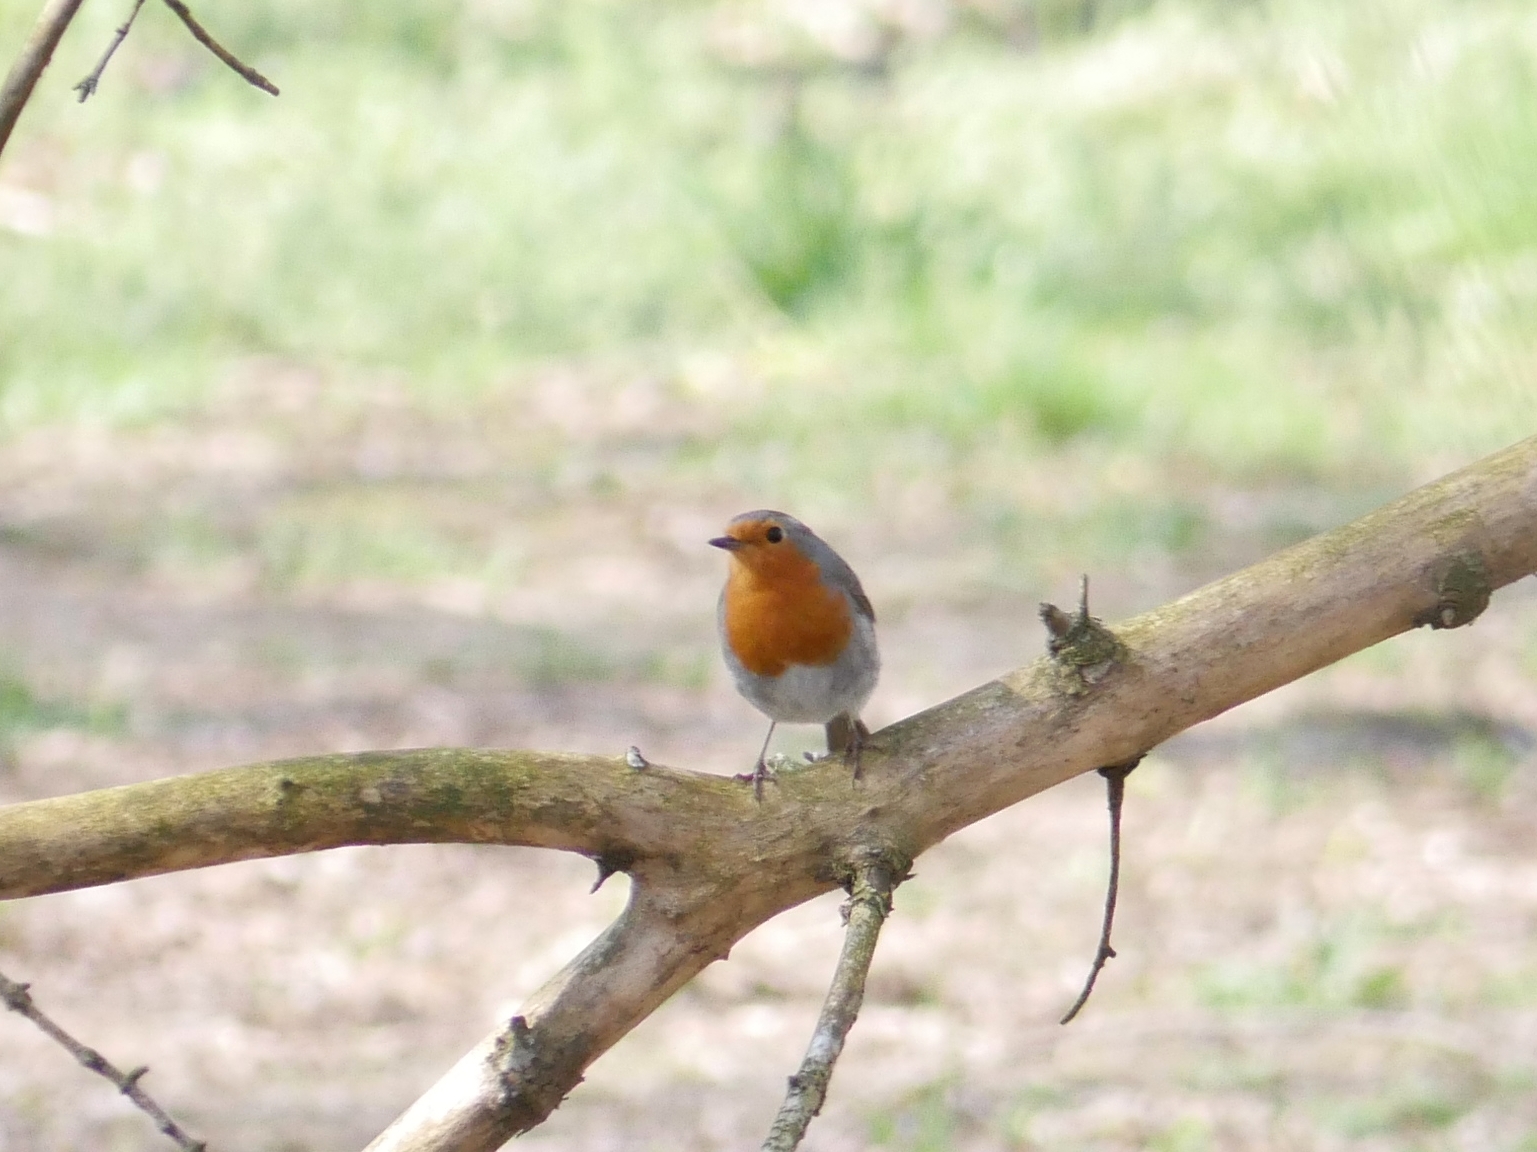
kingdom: Animalia
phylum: Chordata
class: Aves
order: Passeriformes
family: Muscicapidae
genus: Erithacus
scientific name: Erithacus rubecula
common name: European robin
